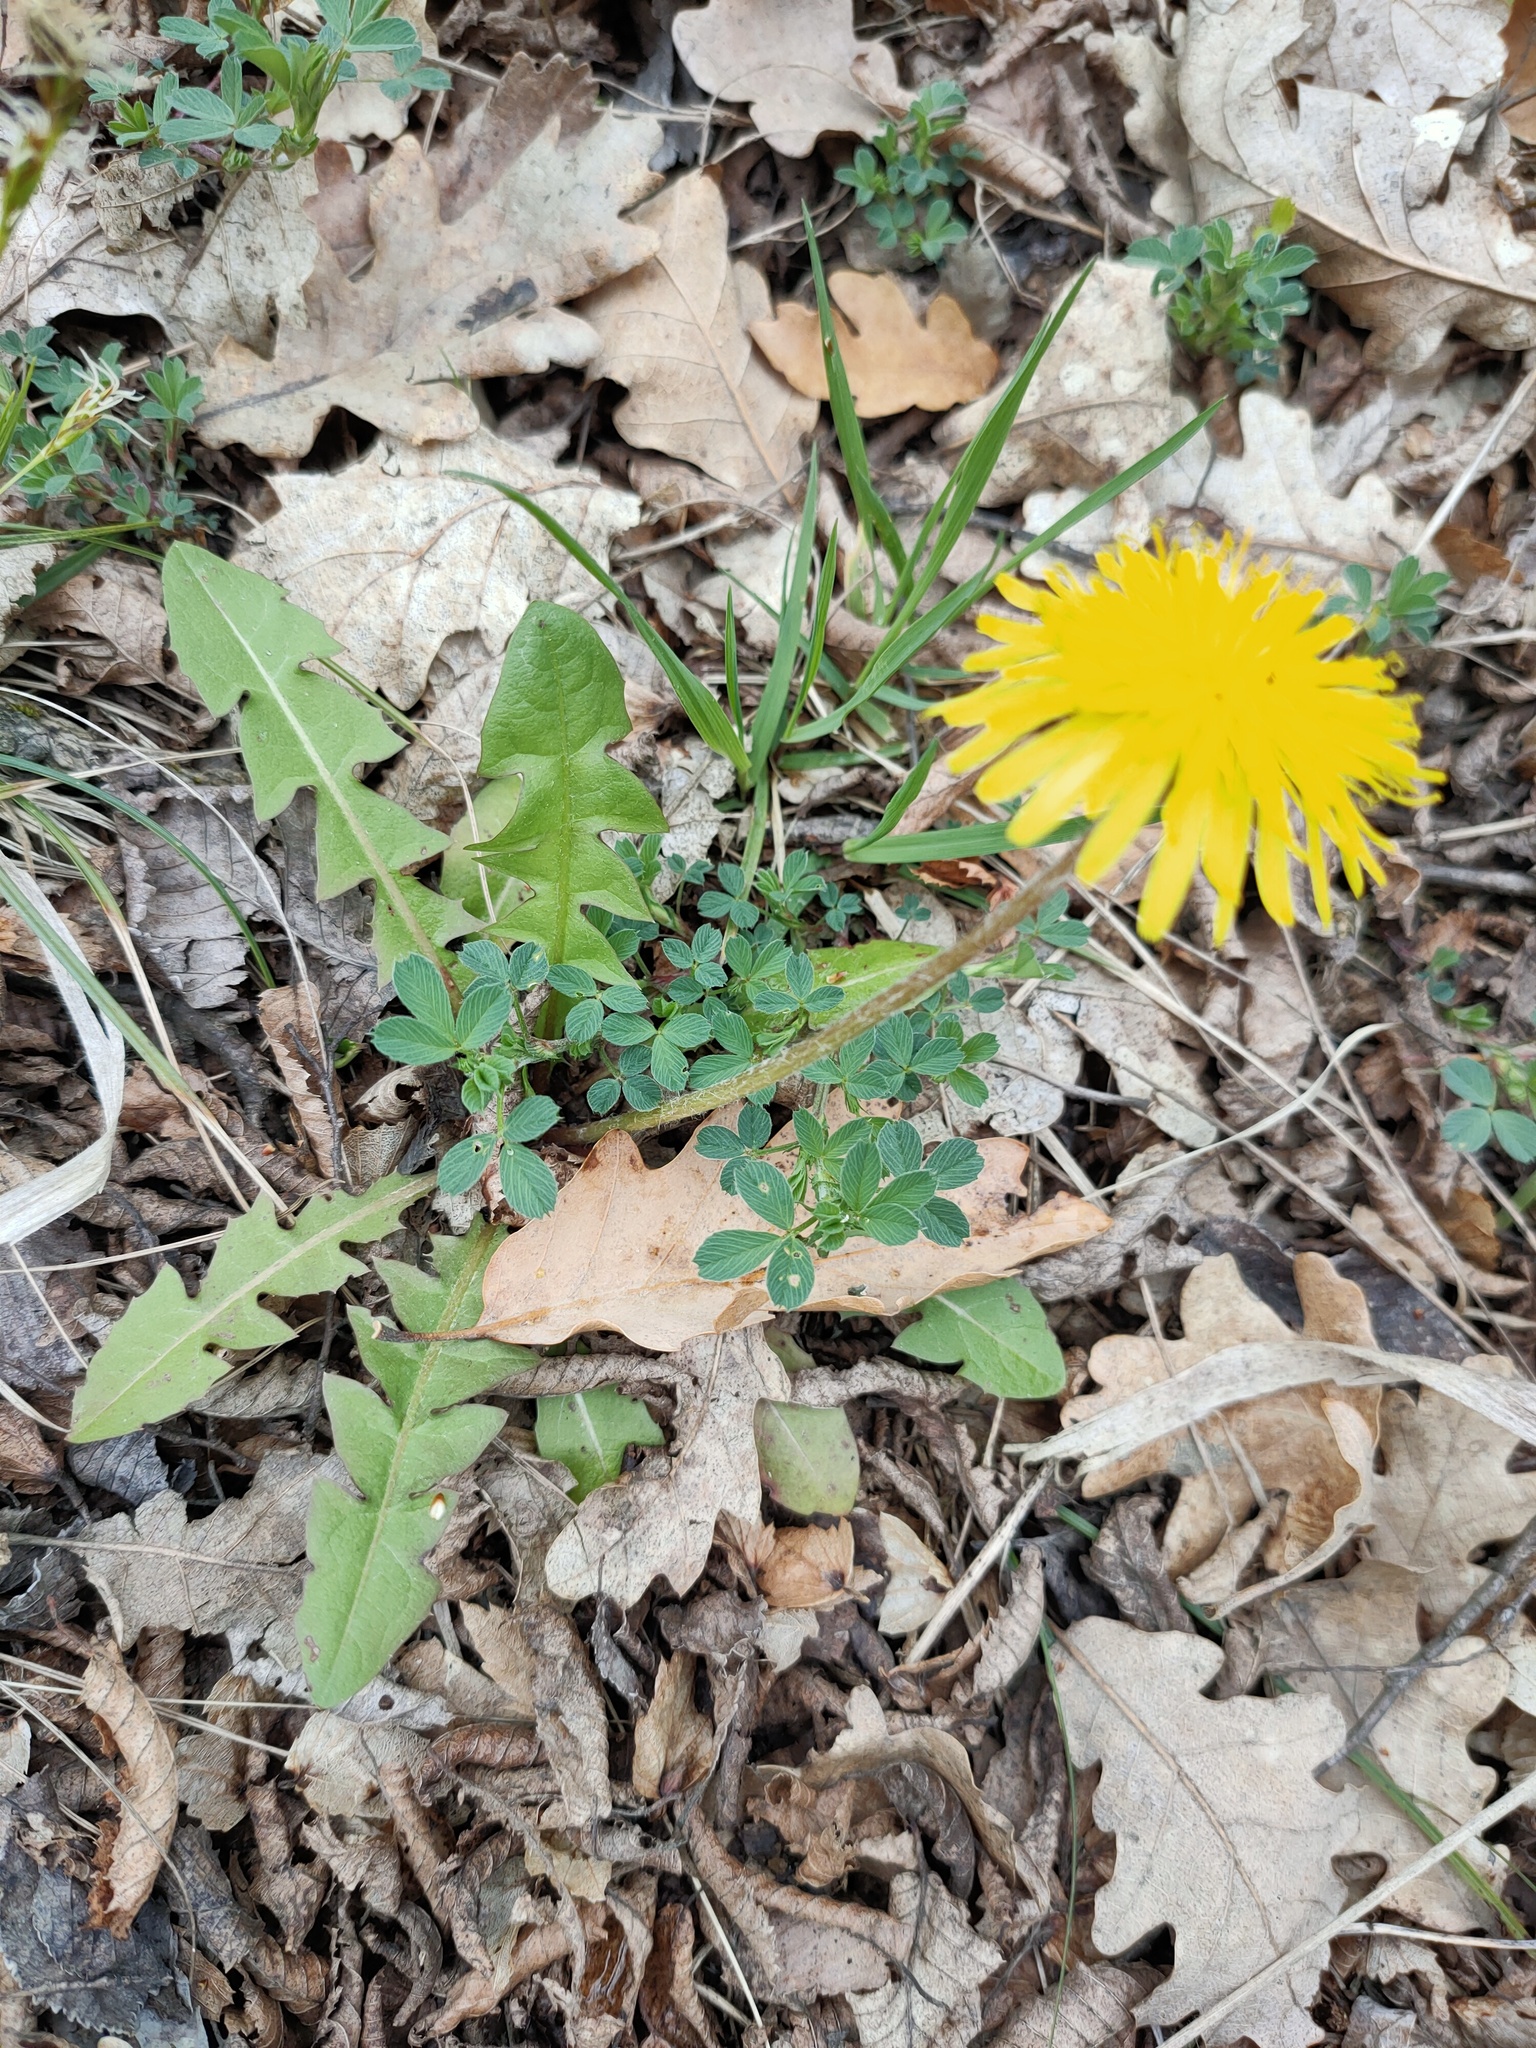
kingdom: Plantae
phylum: Tracheophyta
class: Magnoliopsida
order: Asterales
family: Asteraceae
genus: Taraxacum
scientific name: Taraxacum officinale
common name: Common dandelion
